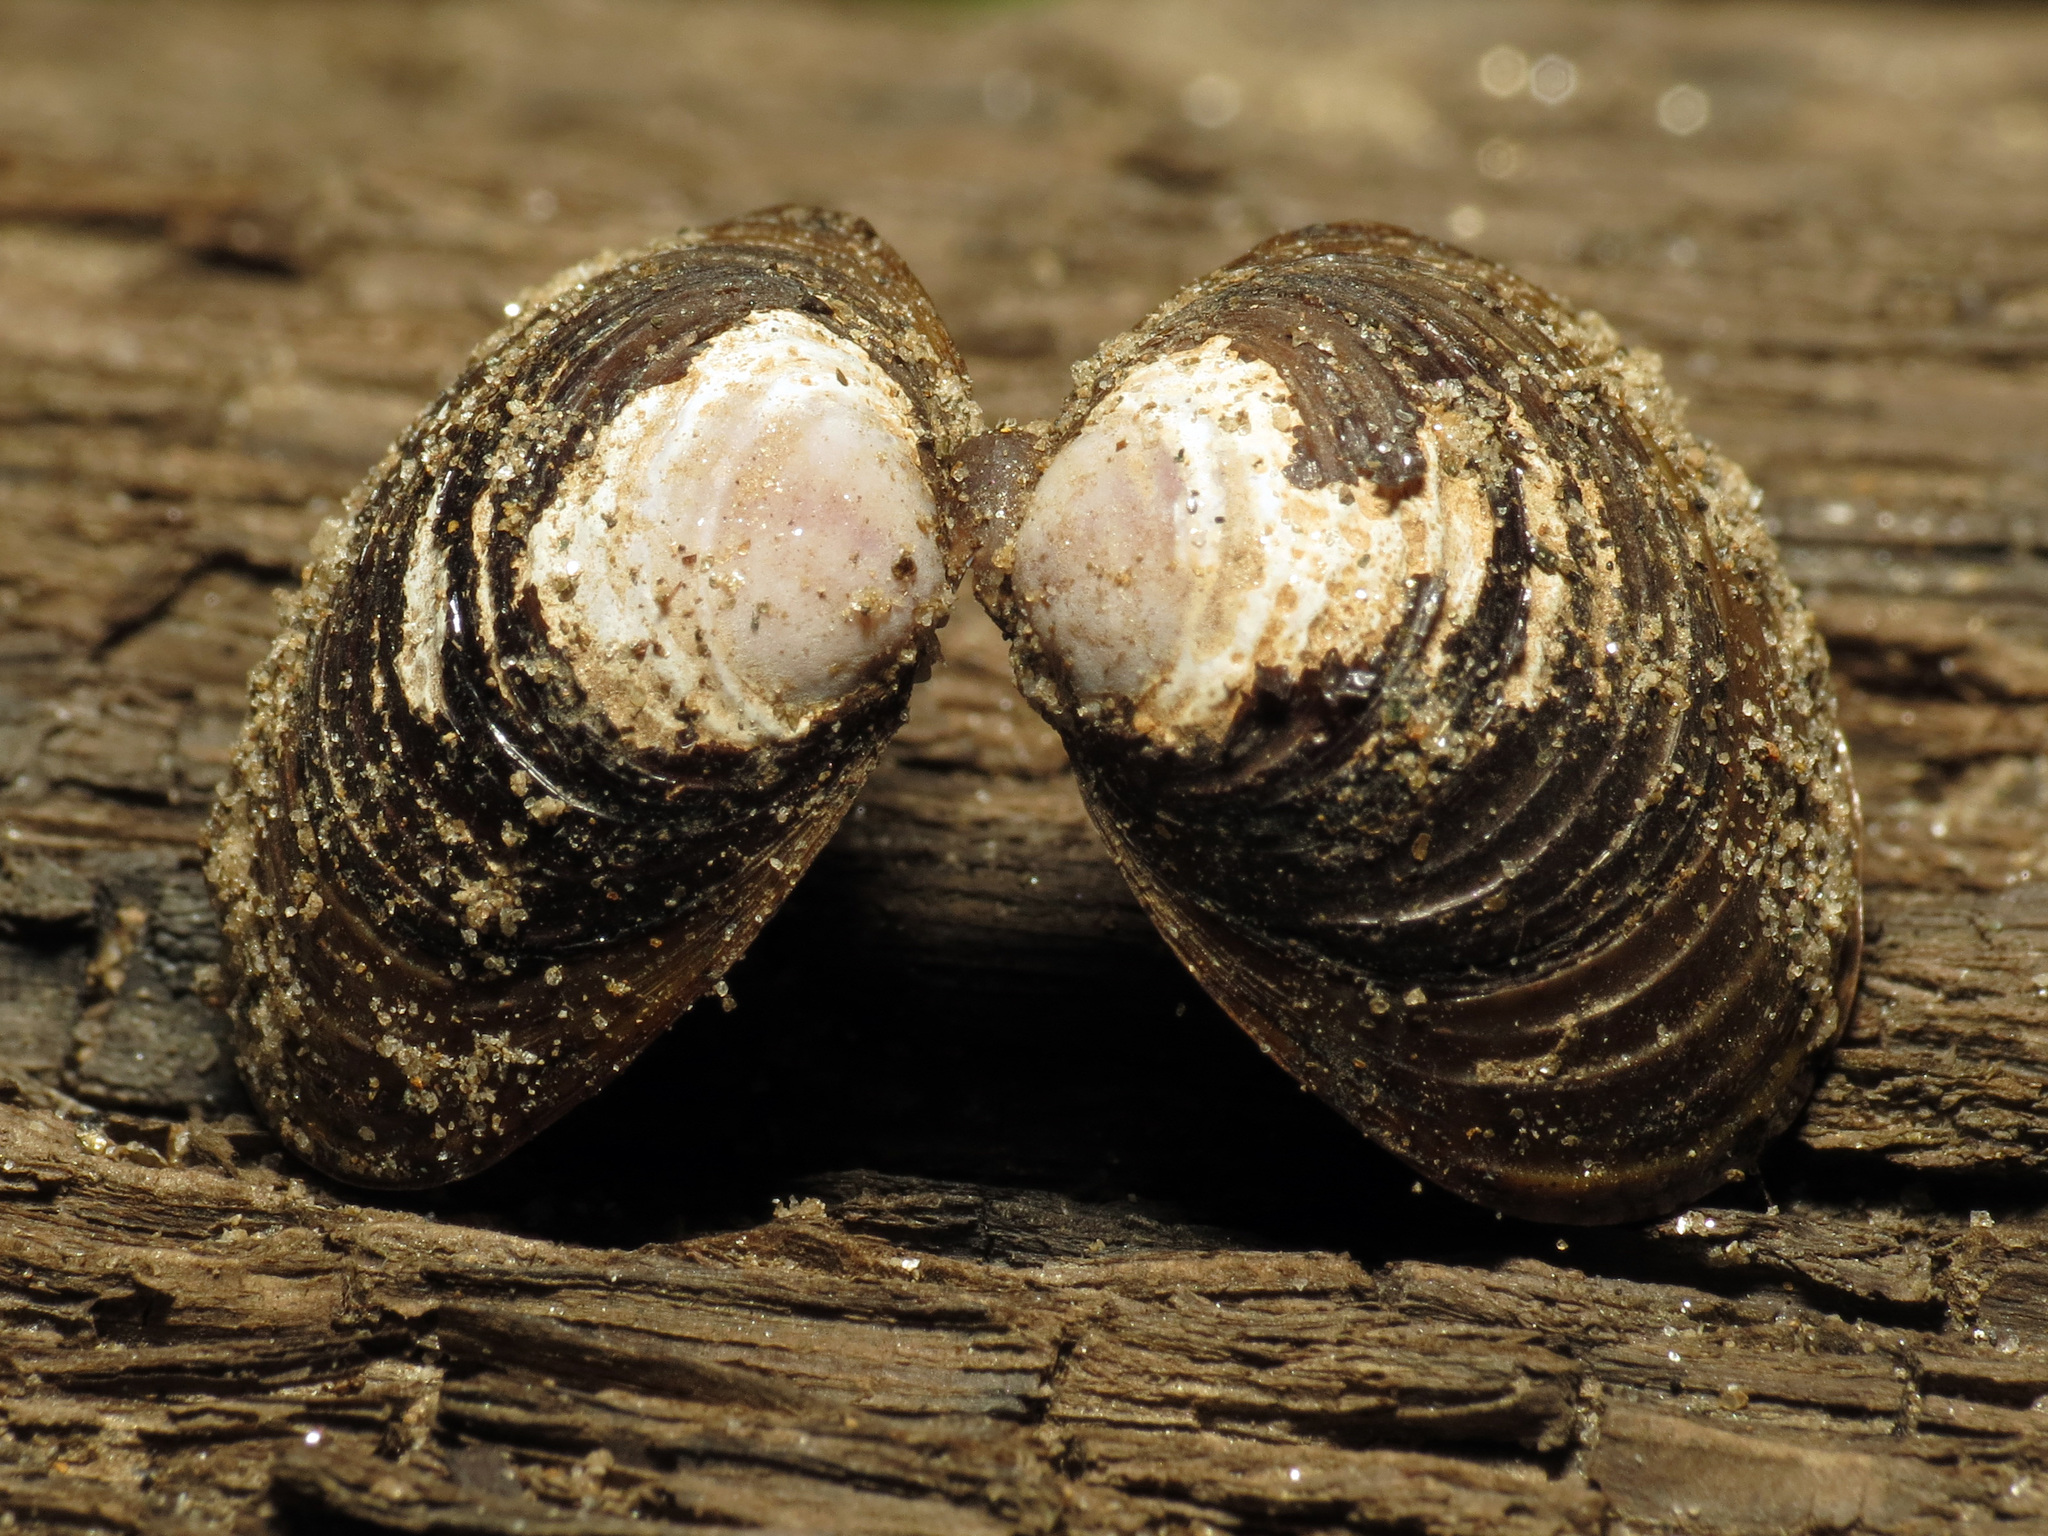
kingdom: Animalia
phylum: Mollusca
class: Bivalvia
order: Venerida
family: Cyrenidae
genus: Corbicula
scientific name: Corbicula fluminea
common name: Asian clam
